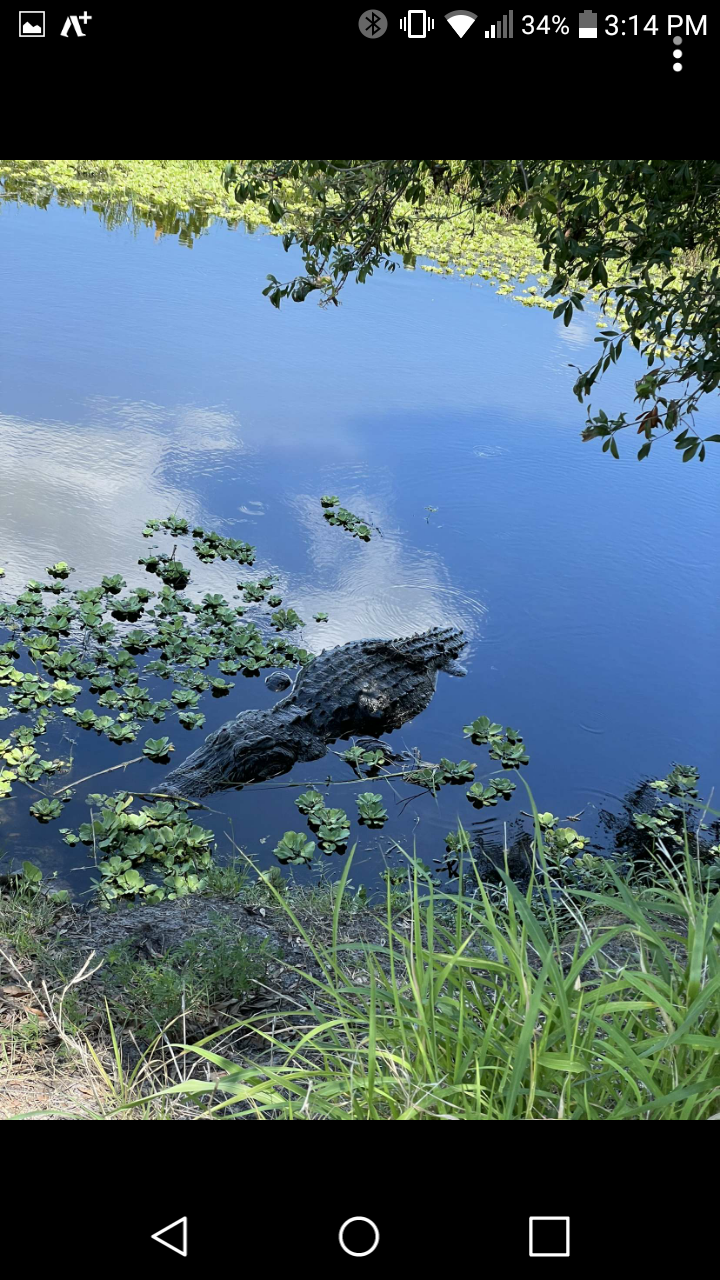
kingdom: Animalia
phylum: Chordata
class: Crocodylia
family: Alligatoridae
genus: Alligator
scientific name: Alligator mississippiensis
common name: American alligator
